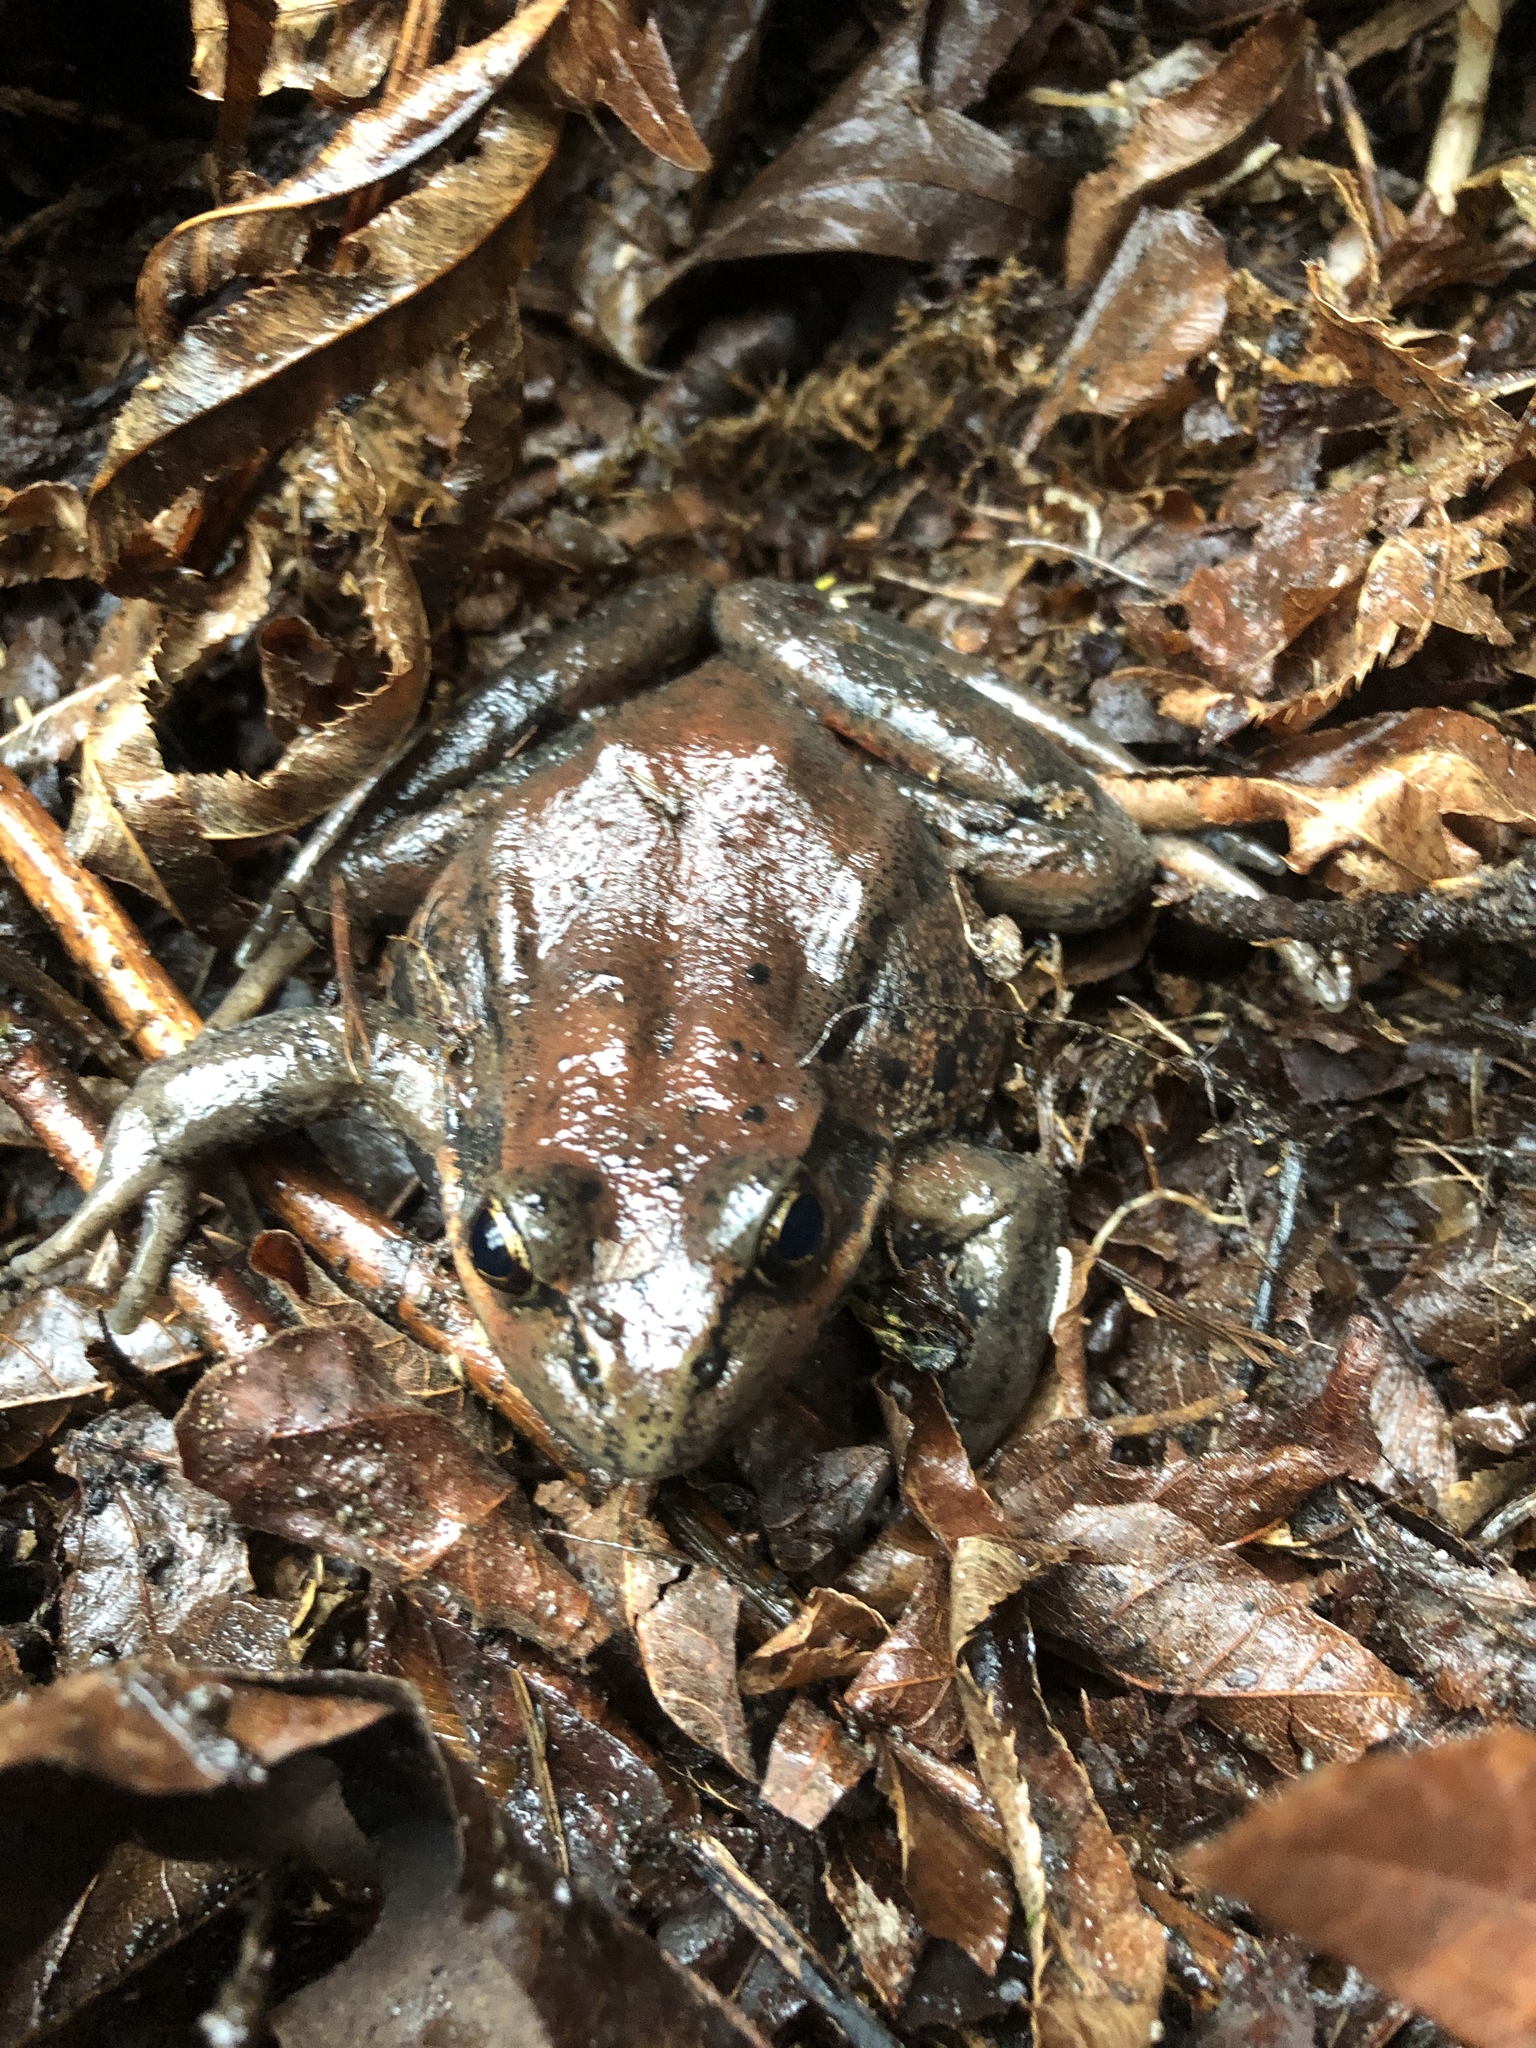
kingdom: Animalia
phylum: Chordata
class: Amphibia
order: Anura
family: Ranidae
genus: Rana
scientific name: Rana aurora
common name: Red-legged frog
